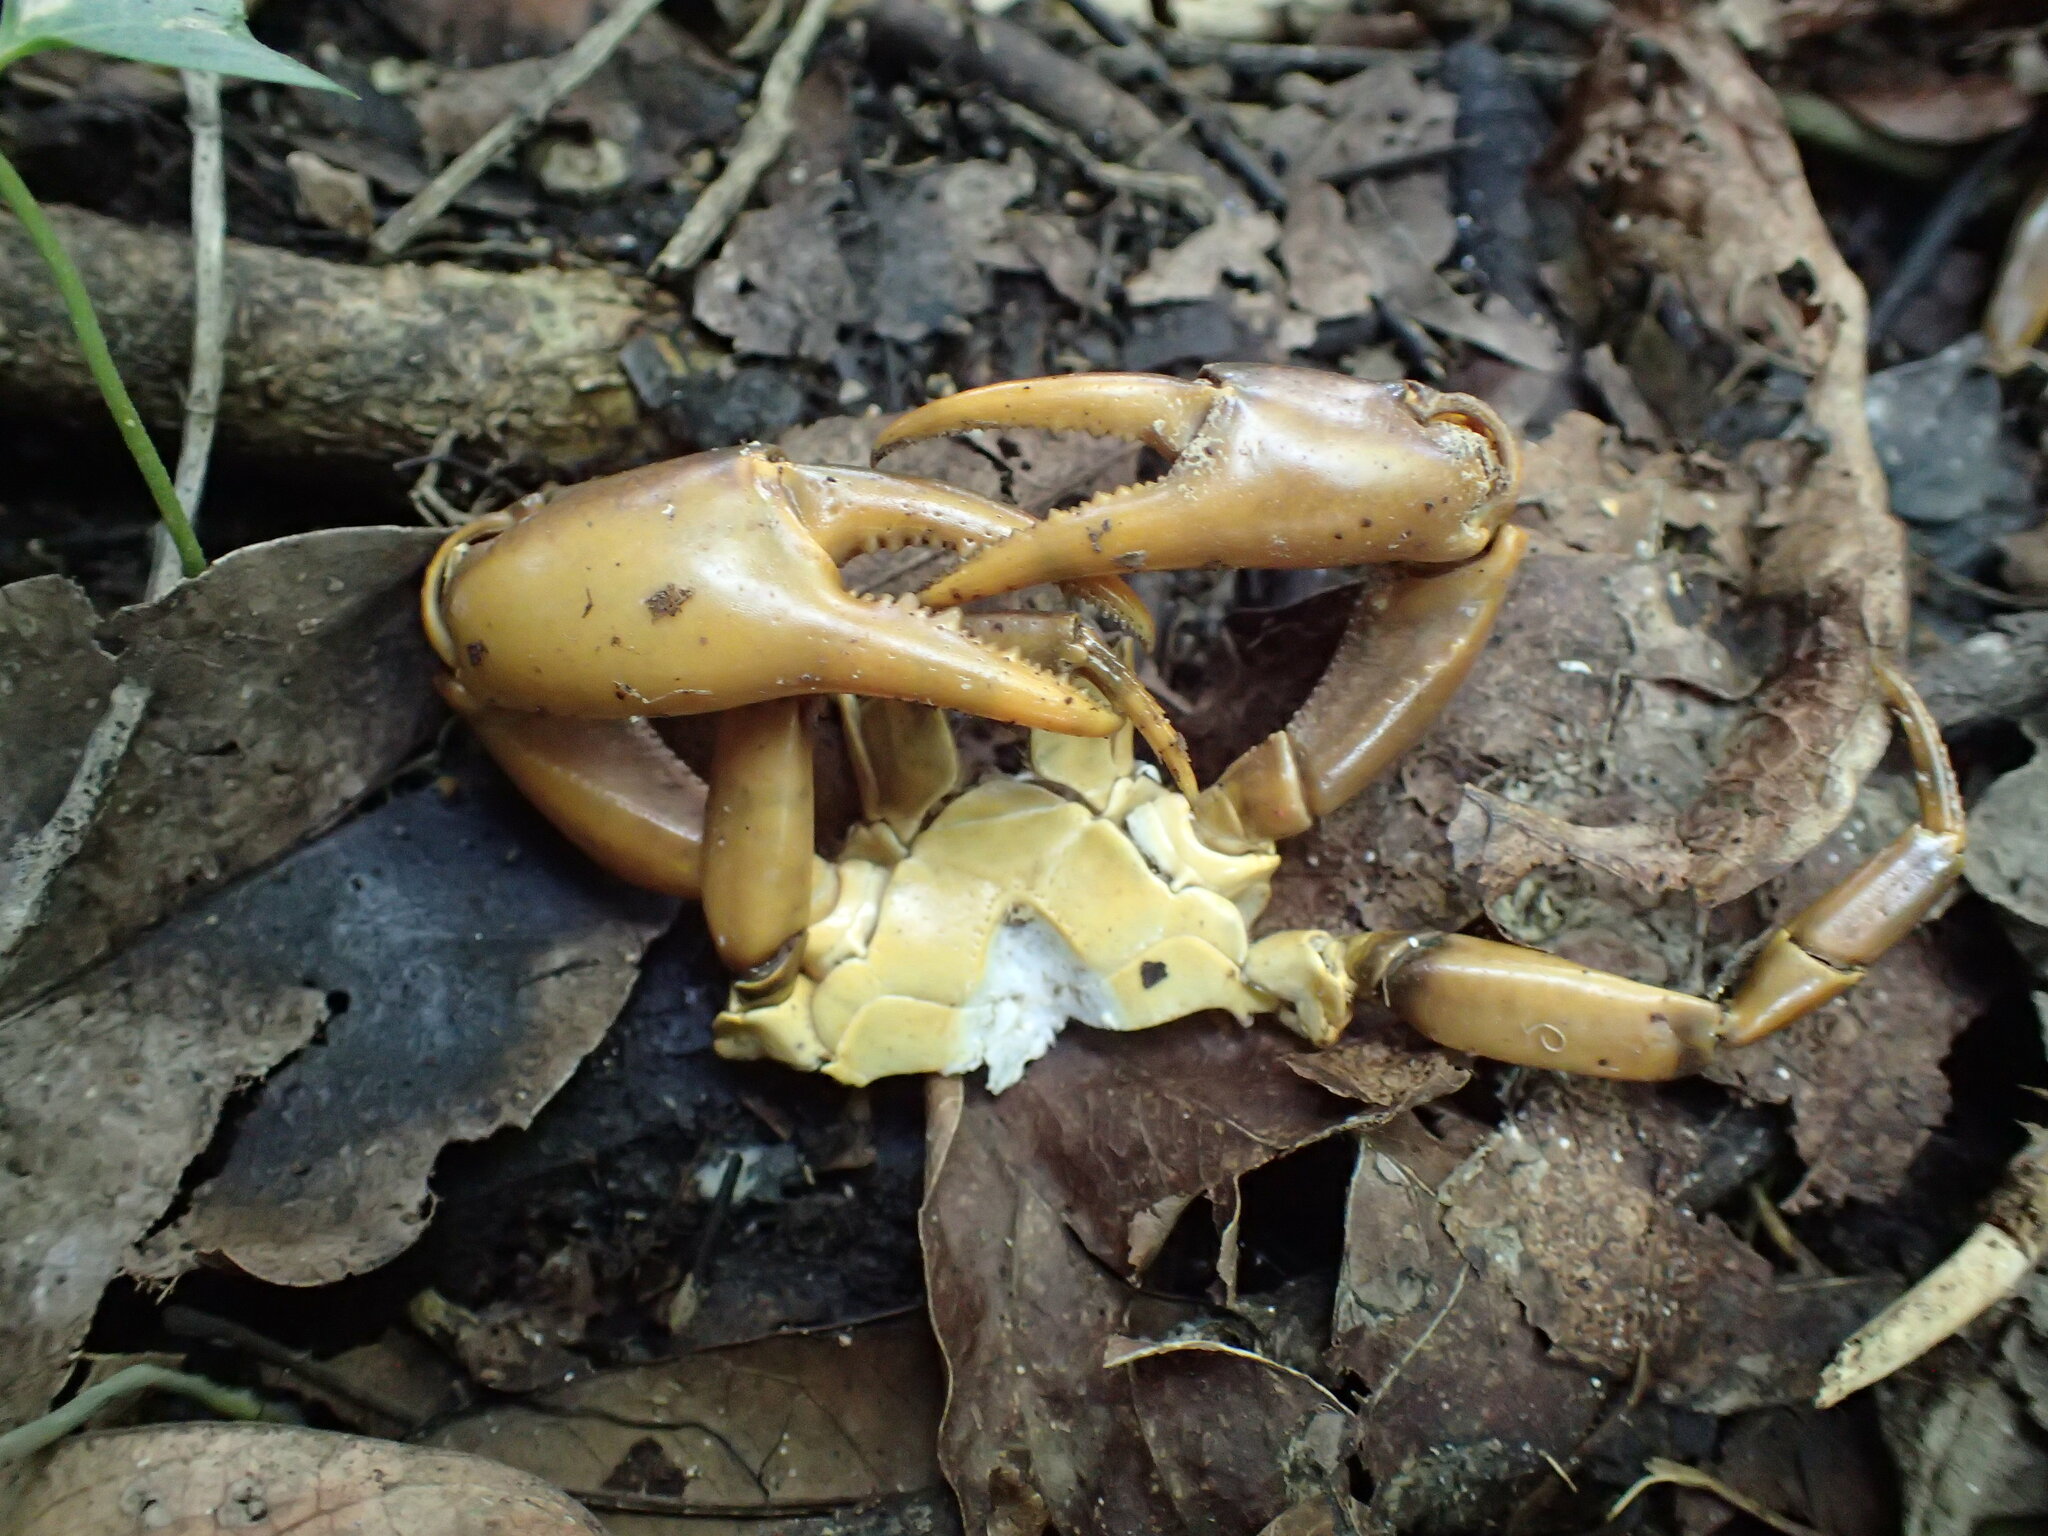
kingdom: Animalia
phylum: Arthropoda
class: Malacostraca
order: Decapoda
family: Potamonautidae
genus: Potamonautes
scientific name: Potamonautes bayonianus
